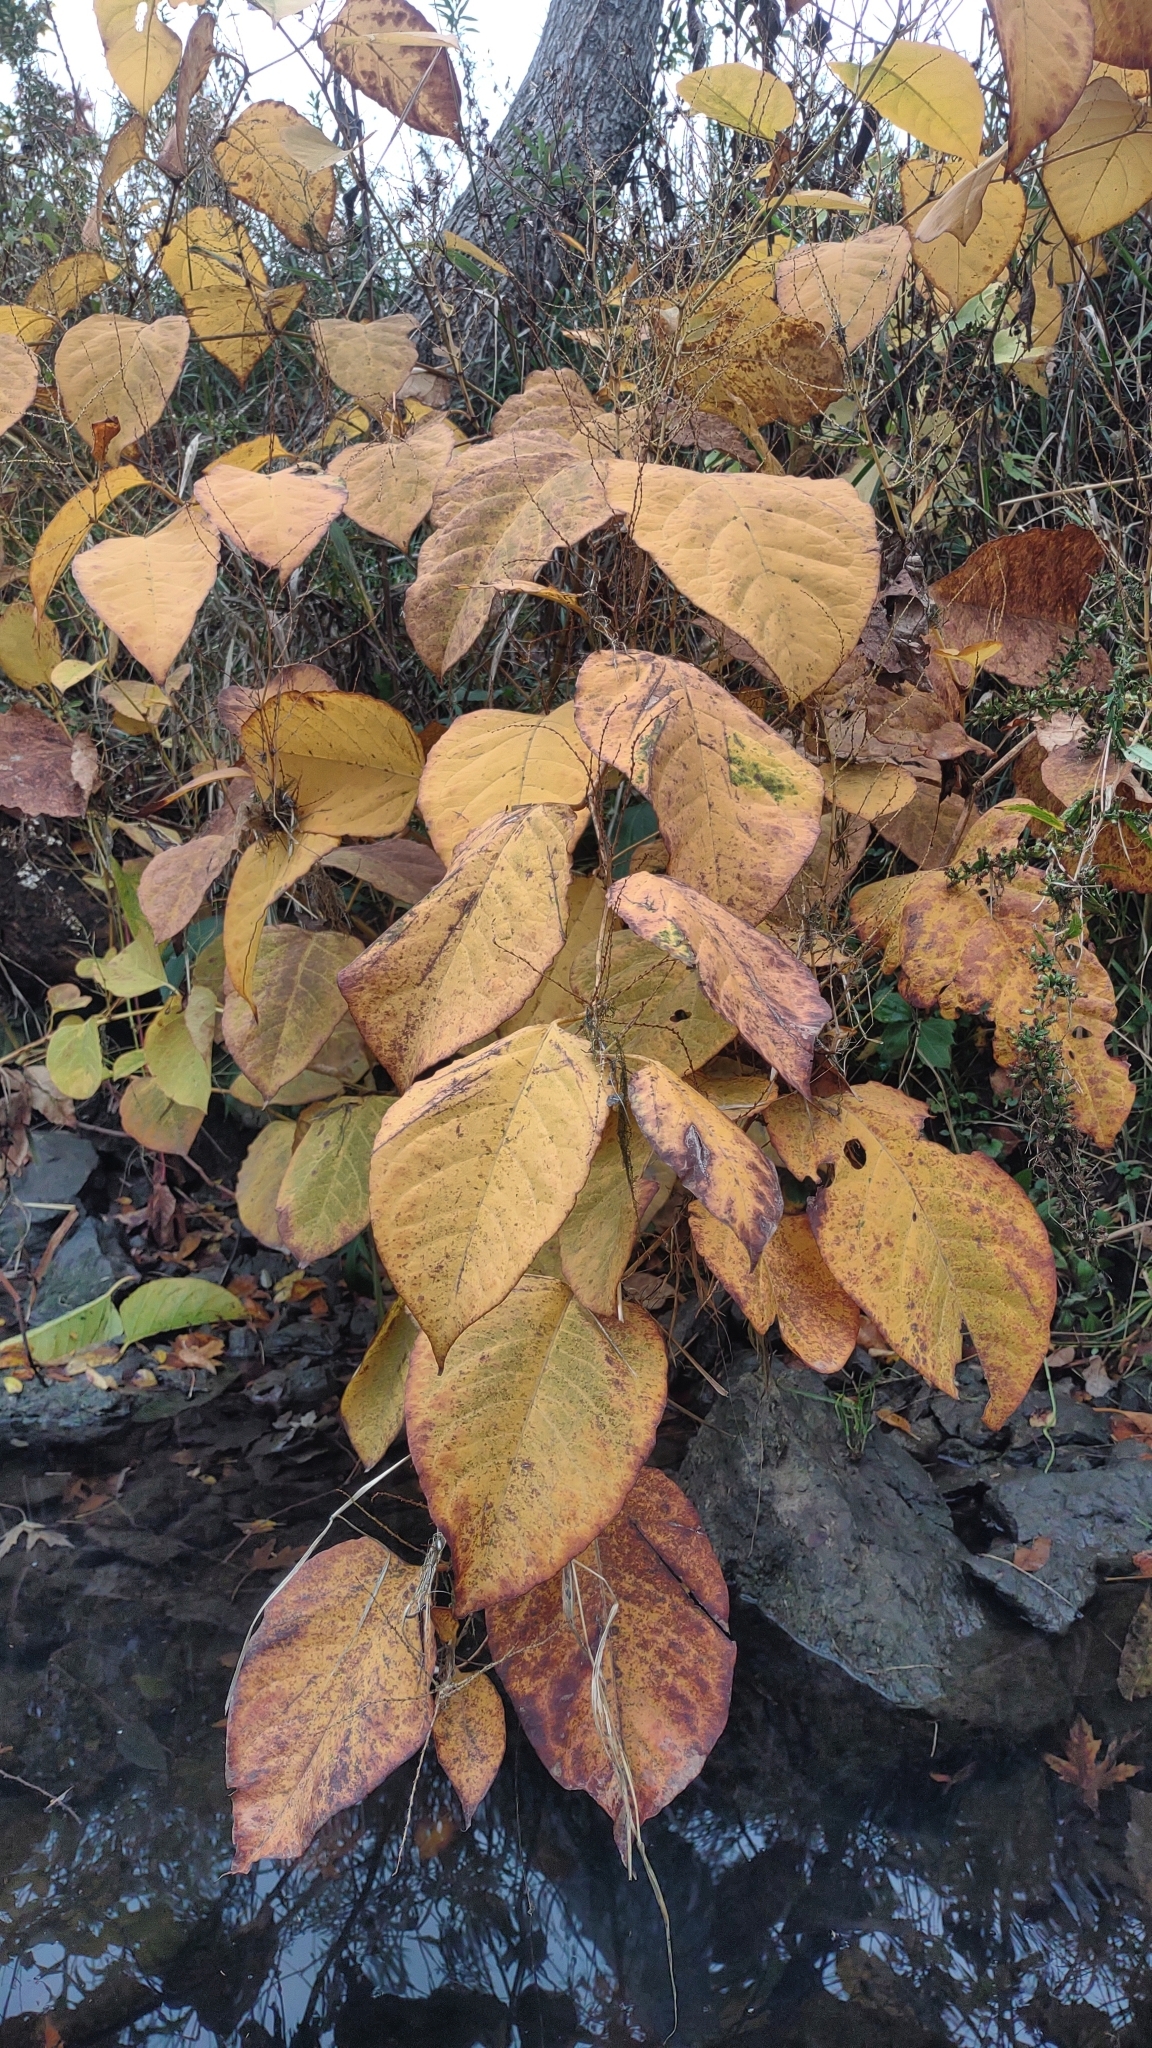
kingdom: Plantae
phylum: Tracheophyta
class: Magnoliopsida
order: Caryophyllales
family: Polygonaceae
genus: Reynoutria
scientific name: Reynoutria japonica
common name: Japanese knotweed
